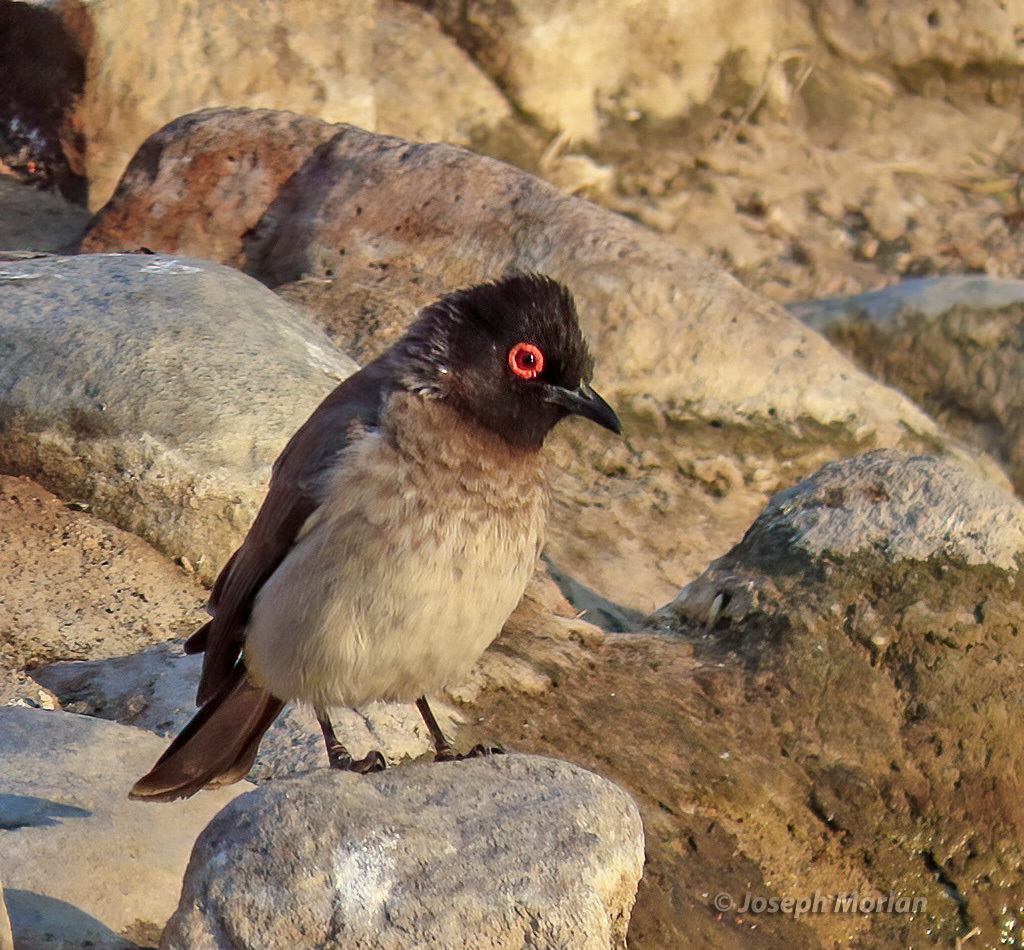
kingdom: Animalia
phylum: Chordata
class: Aves
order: Passeriformes
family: Pycnonotidae
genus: Pycnonotus
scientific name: Pycnonotus nigricans
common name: African red-eyed bulbul
